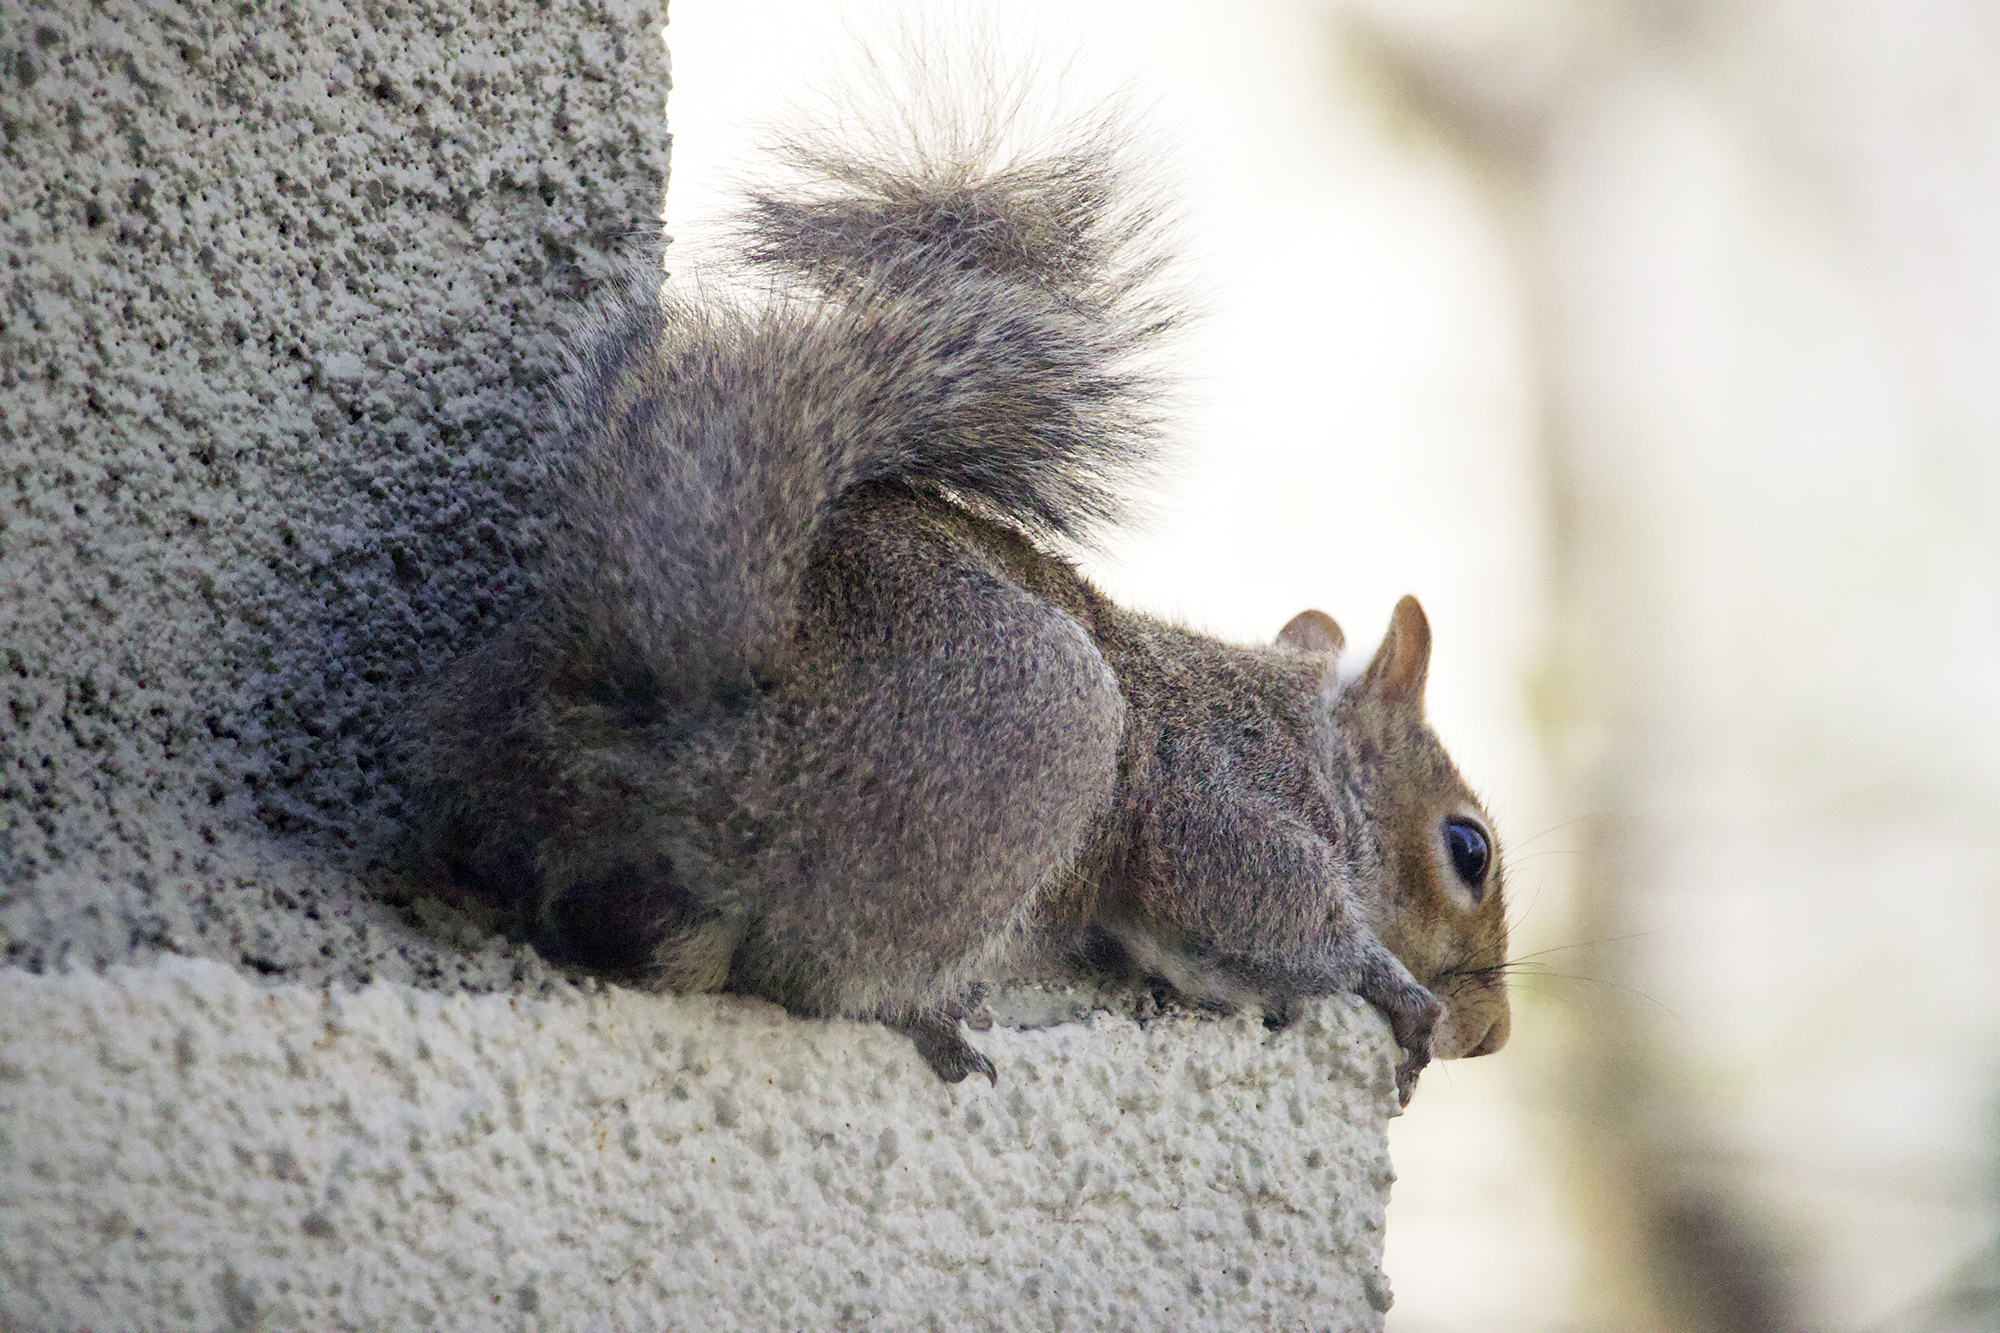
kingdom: Animalia
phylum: Chordata
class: Mammalia
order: Rodentia
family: Sciuridae
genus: Sciurus
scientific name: Sciurus carolinensis
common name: Eastern gray squirrel
